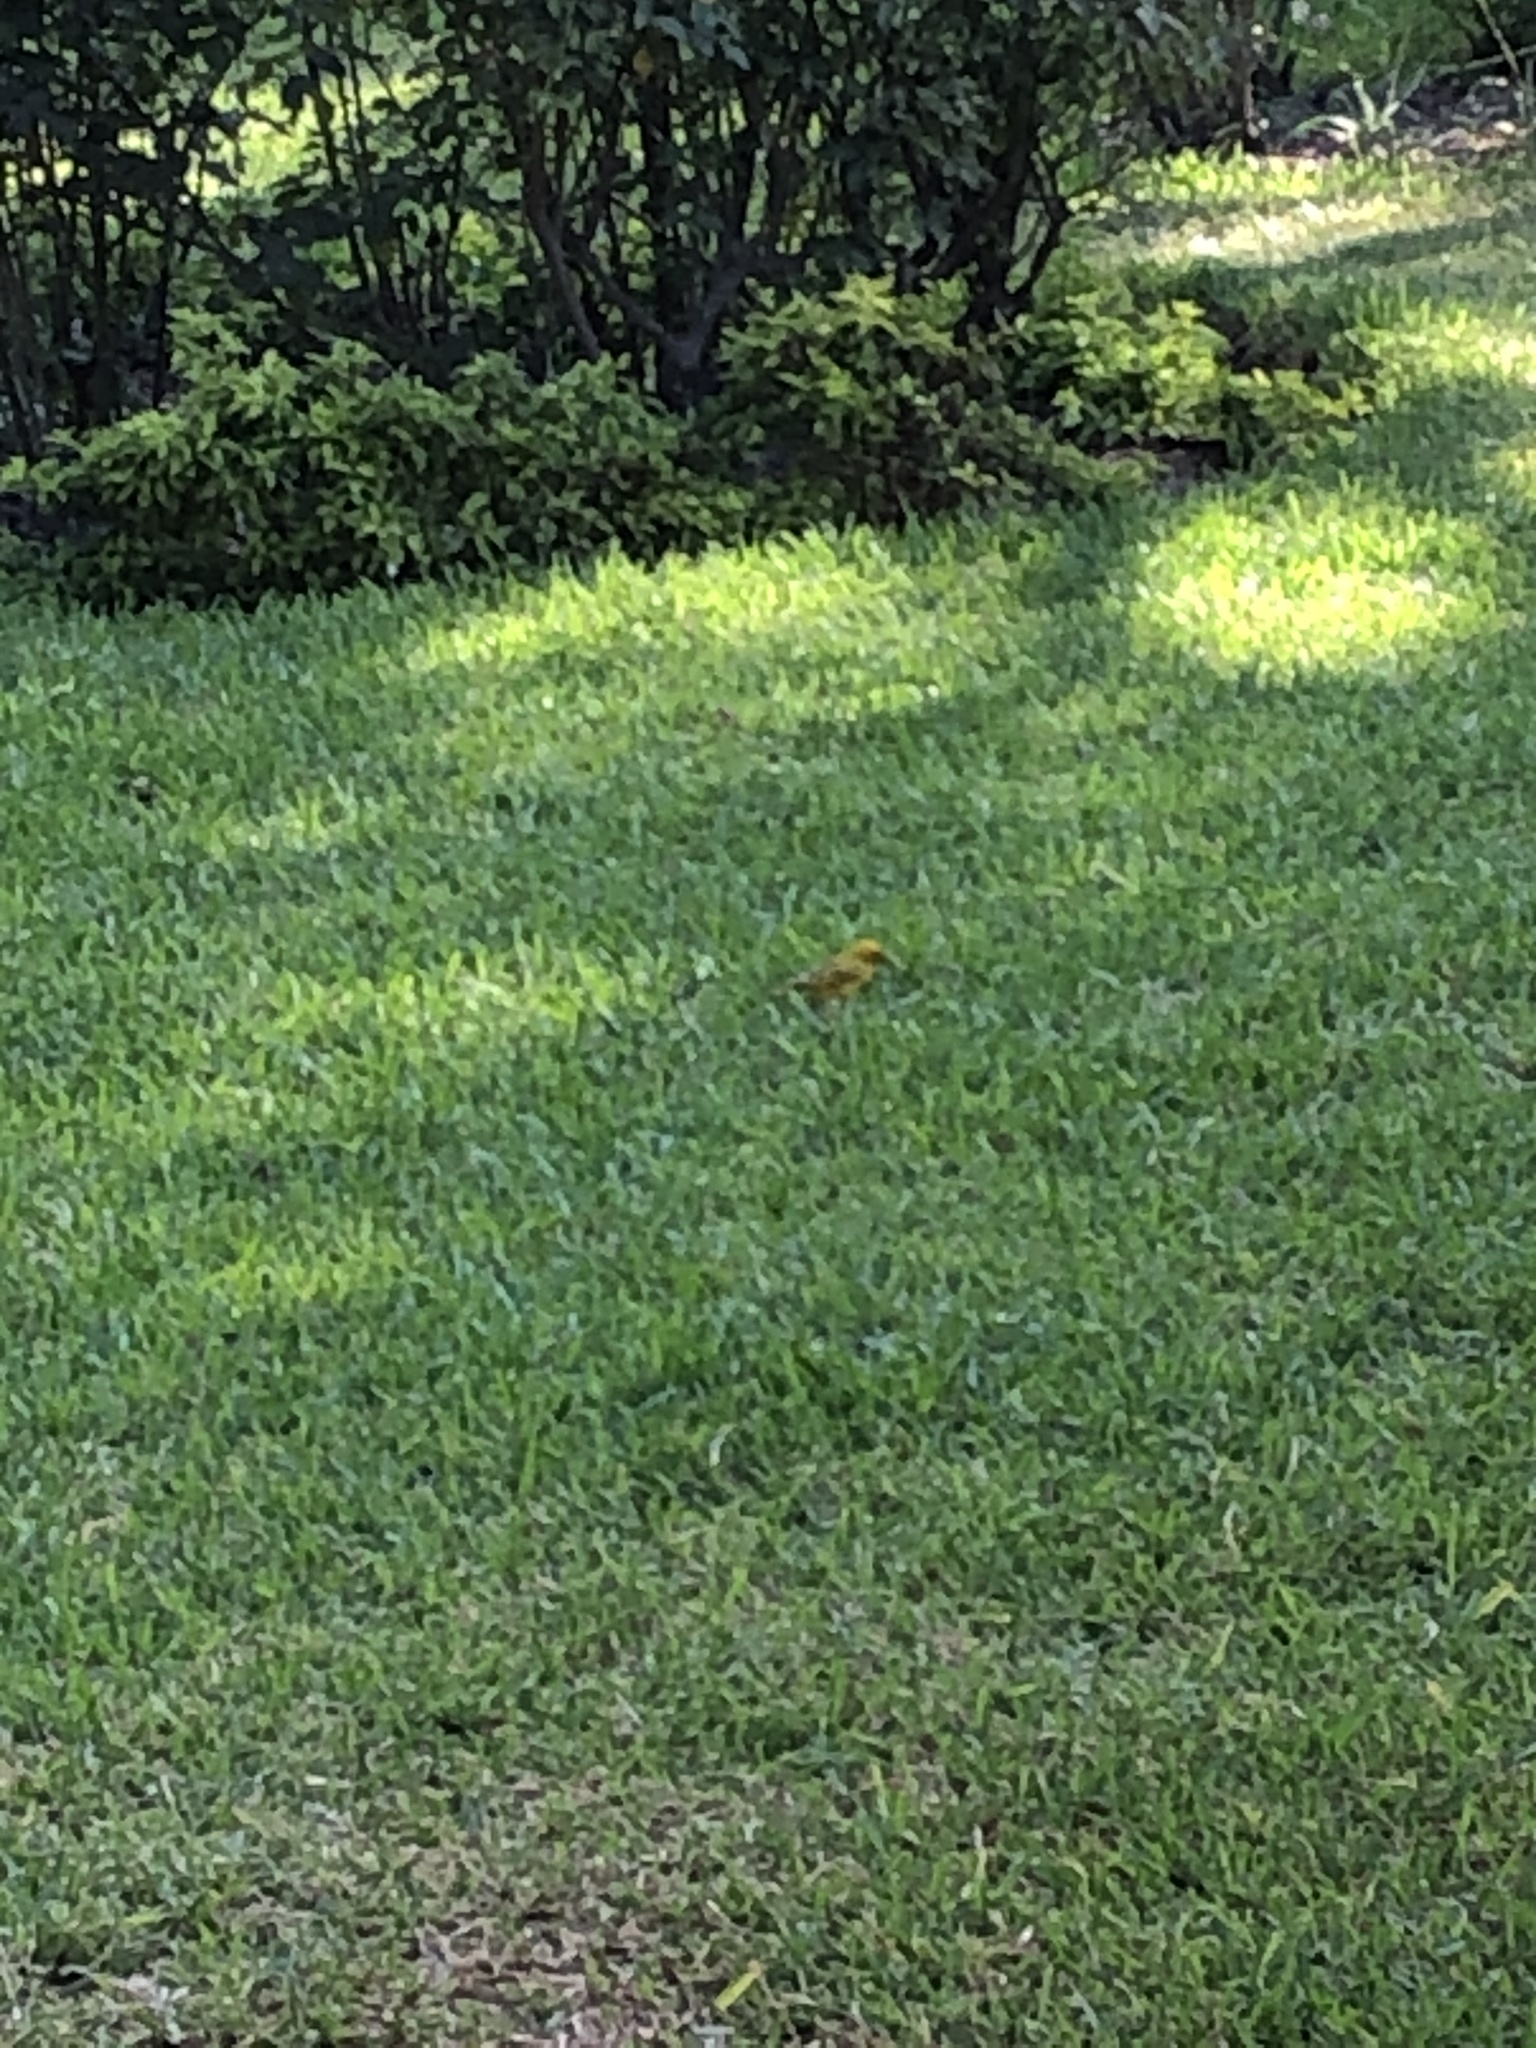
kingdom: Animalia
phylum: Chordata
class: Aves
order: Passeriformes
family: Thraupidae
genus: Sicalis
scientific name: Sicalis flaveola
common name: Saffron finch
